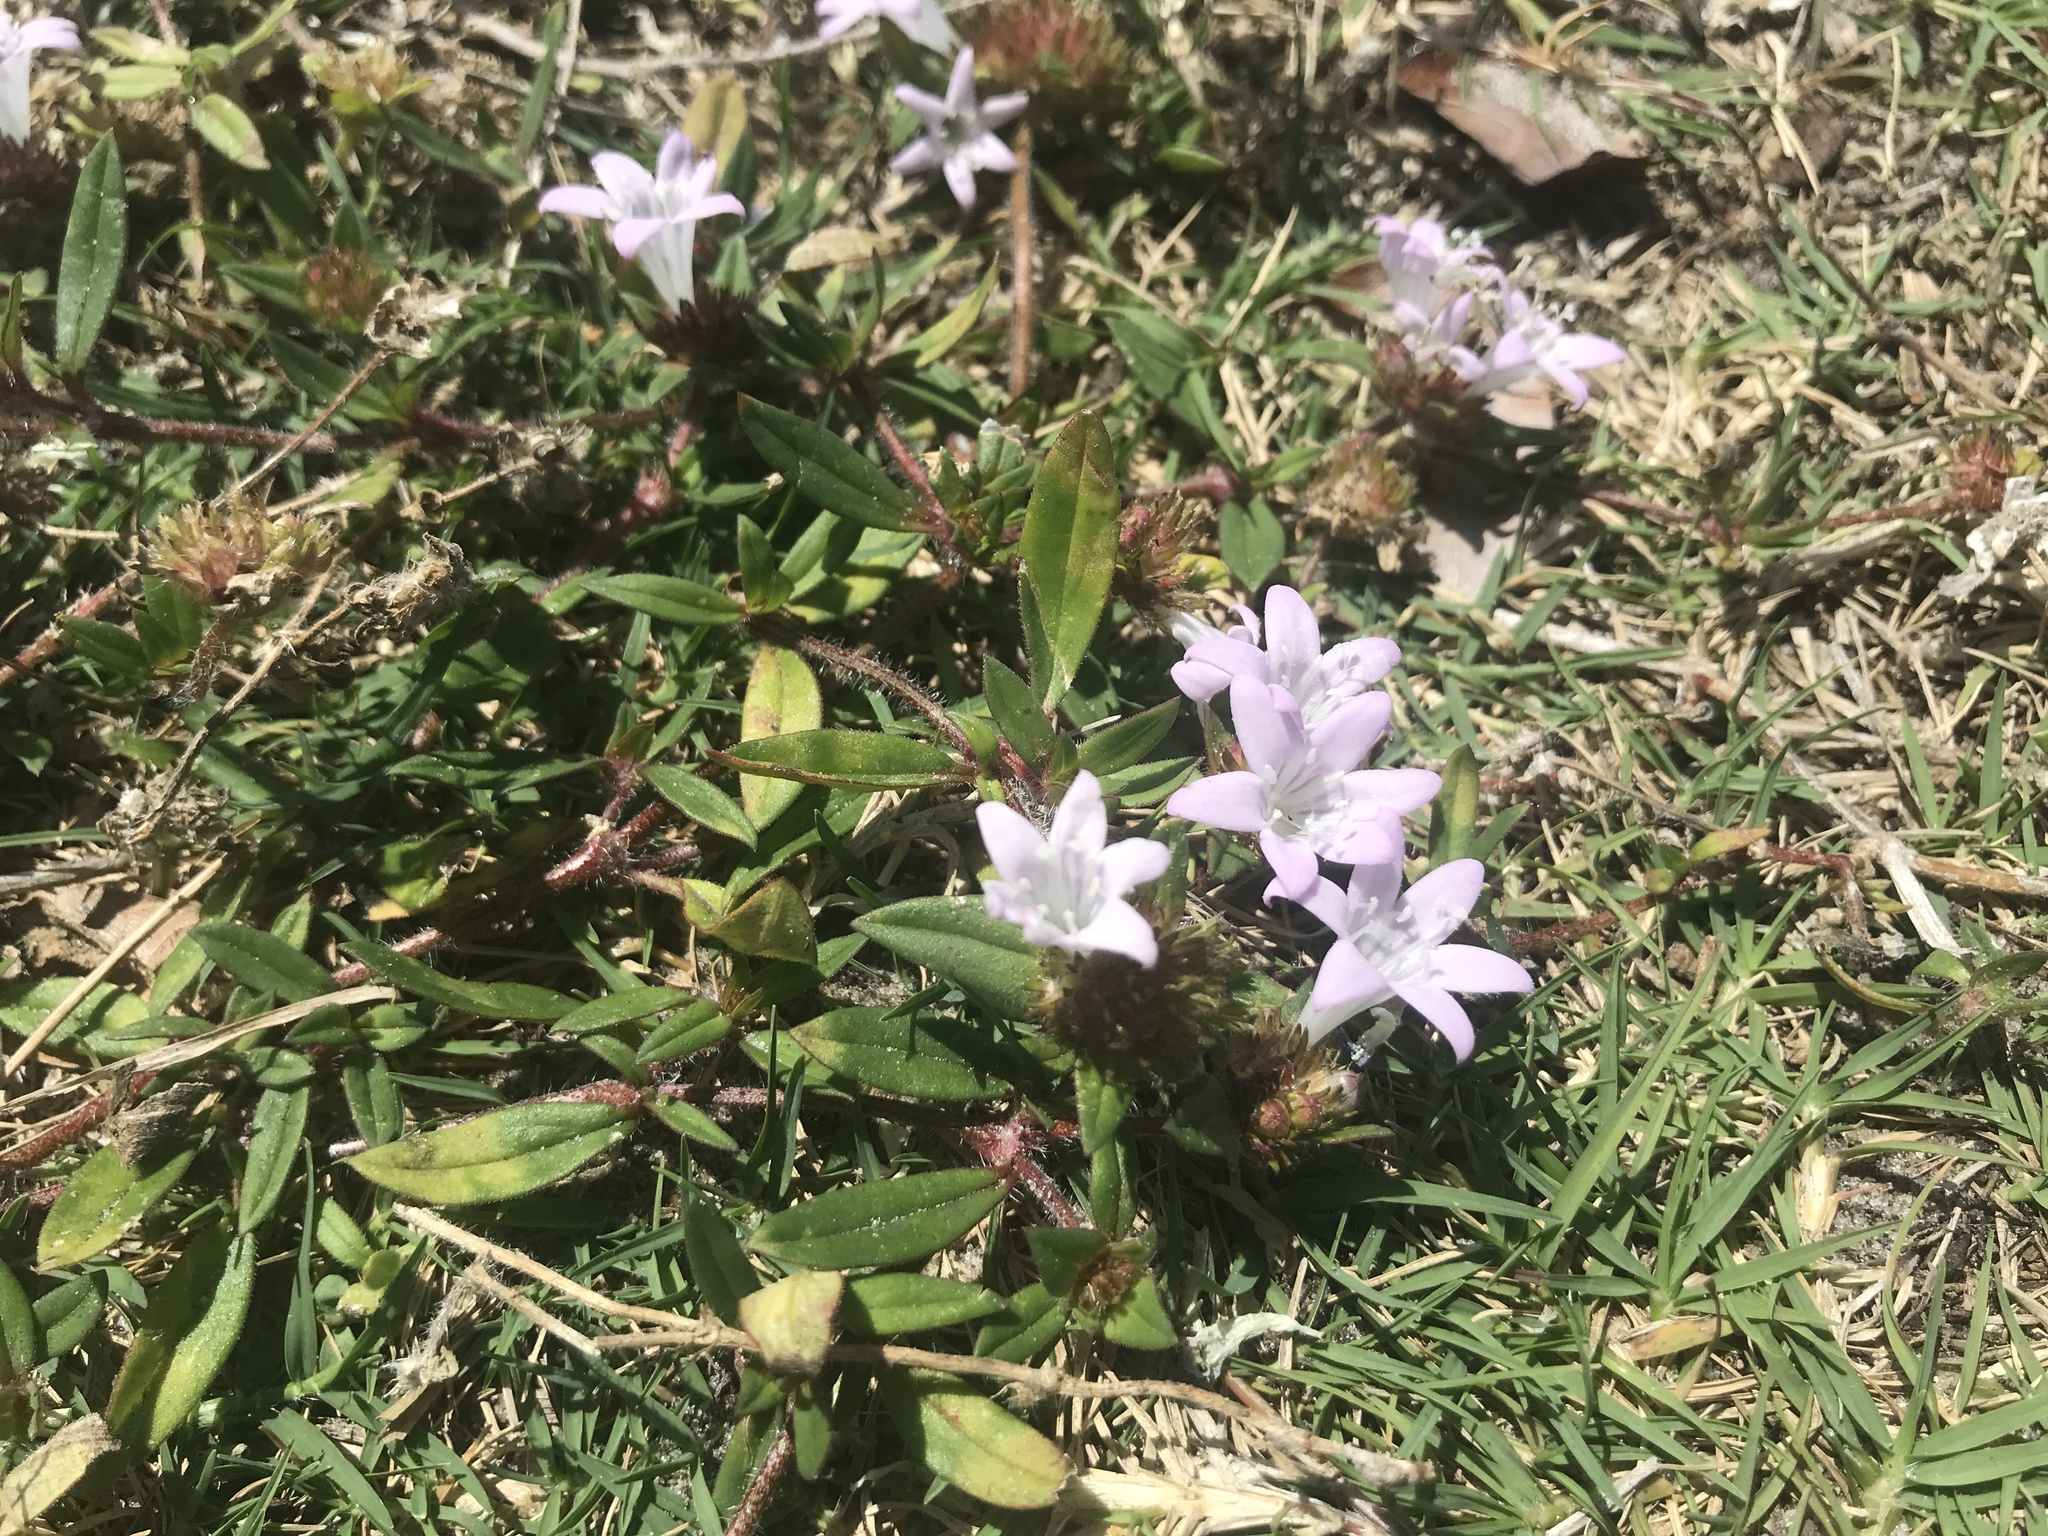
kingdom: Plantae
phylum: Tracheophyta
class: Magnoliopsida
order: Gentianales
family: Rubiaceae
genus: Richardia
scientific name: Richardia grandiflora
